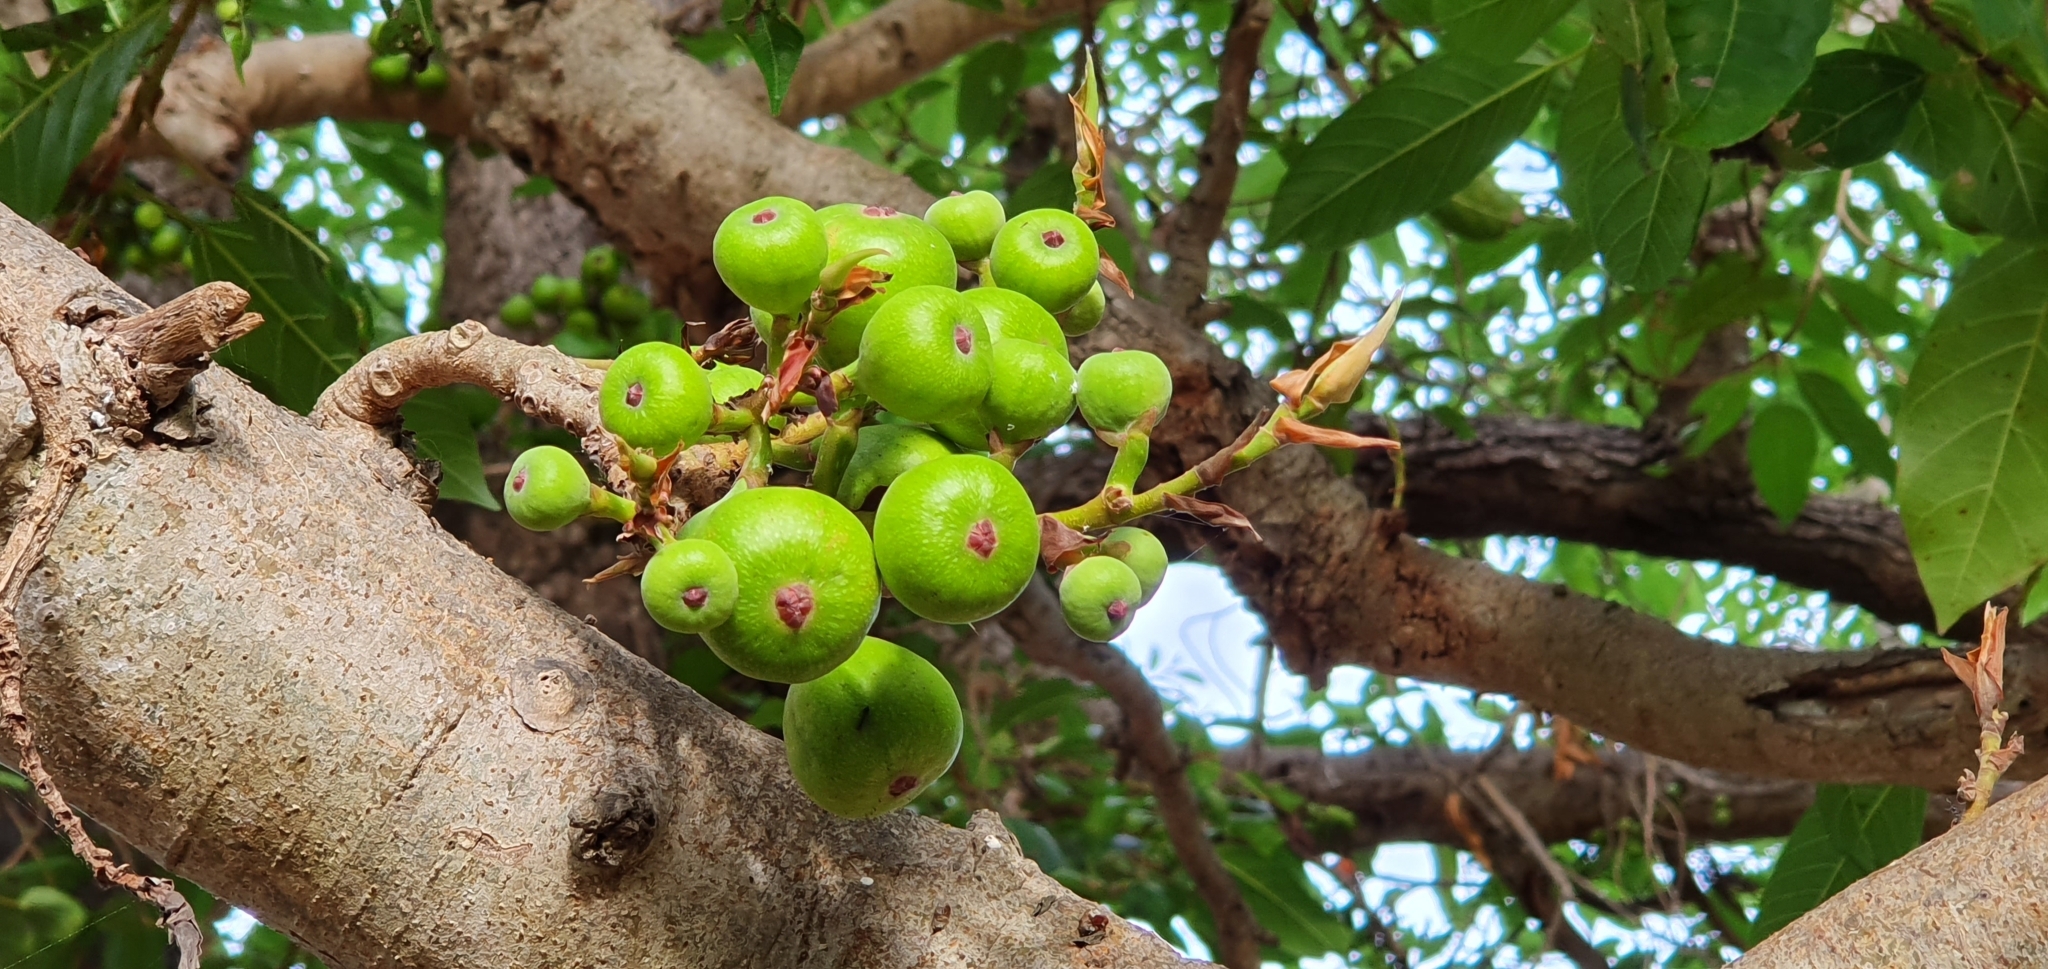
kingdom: Plantae
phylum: Tracheophyta
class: Magnoliopsida
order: Rosales
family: Moraceae
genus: Ficus
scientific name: Ficus racemosa
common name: Cluster fig
